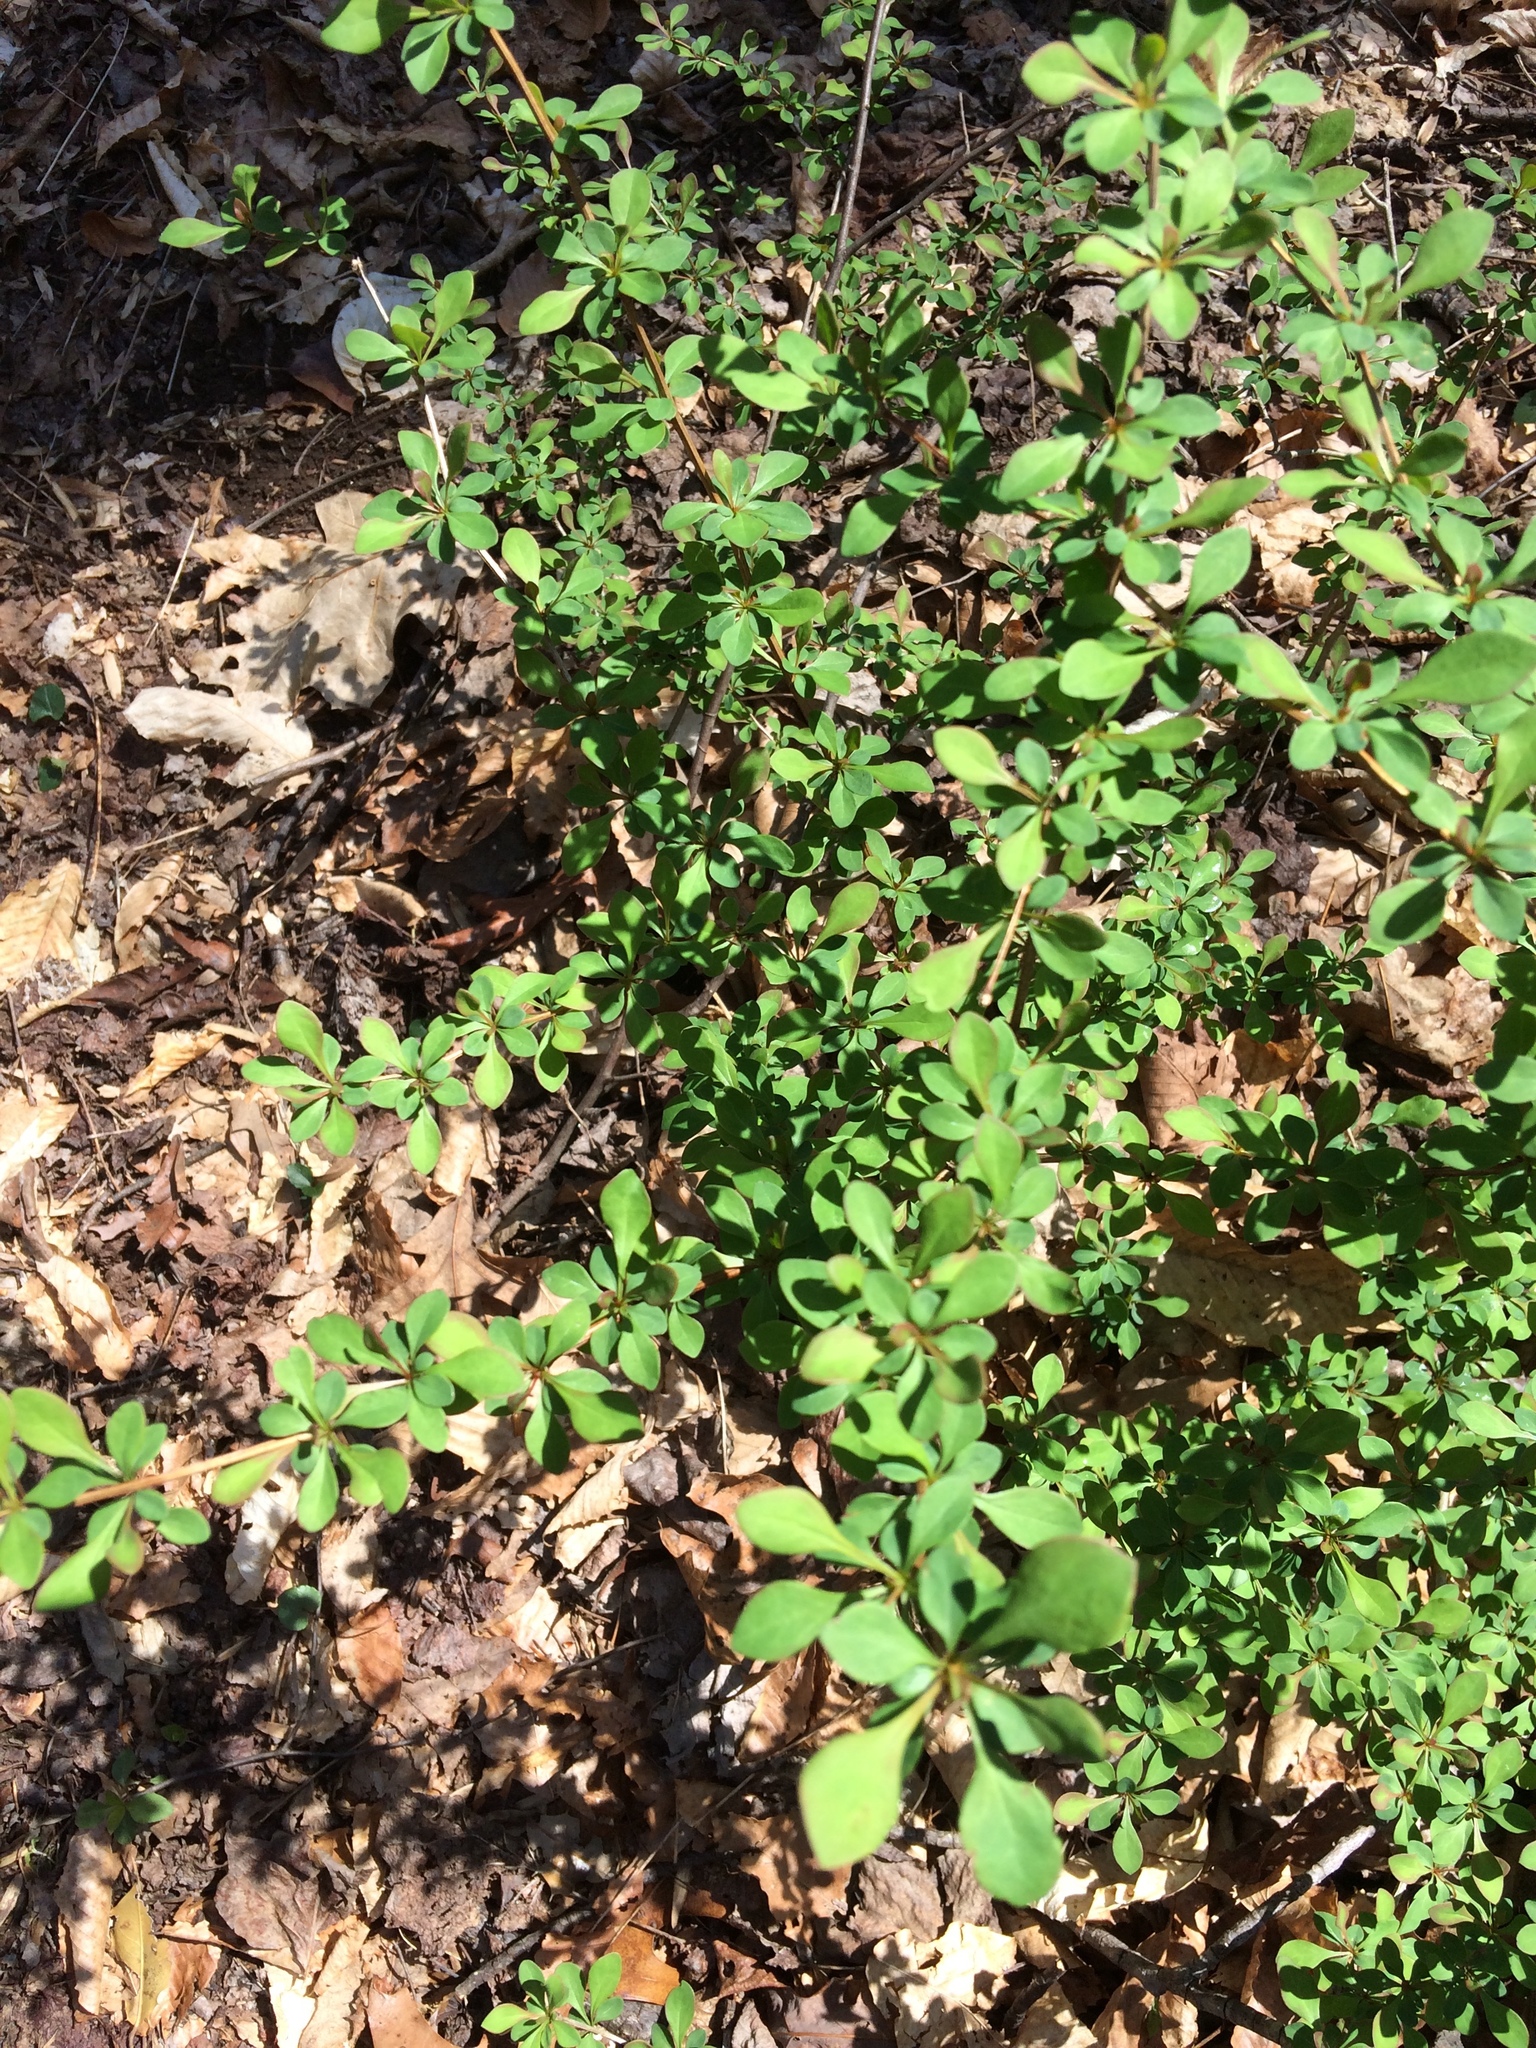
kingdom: Plantae
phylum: Tracheophyta
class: Magnoliopsida
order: Ranunculales
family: Berberidaceae
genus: Berberis
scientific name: Berberis thunbergii
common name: Japanese barberry
